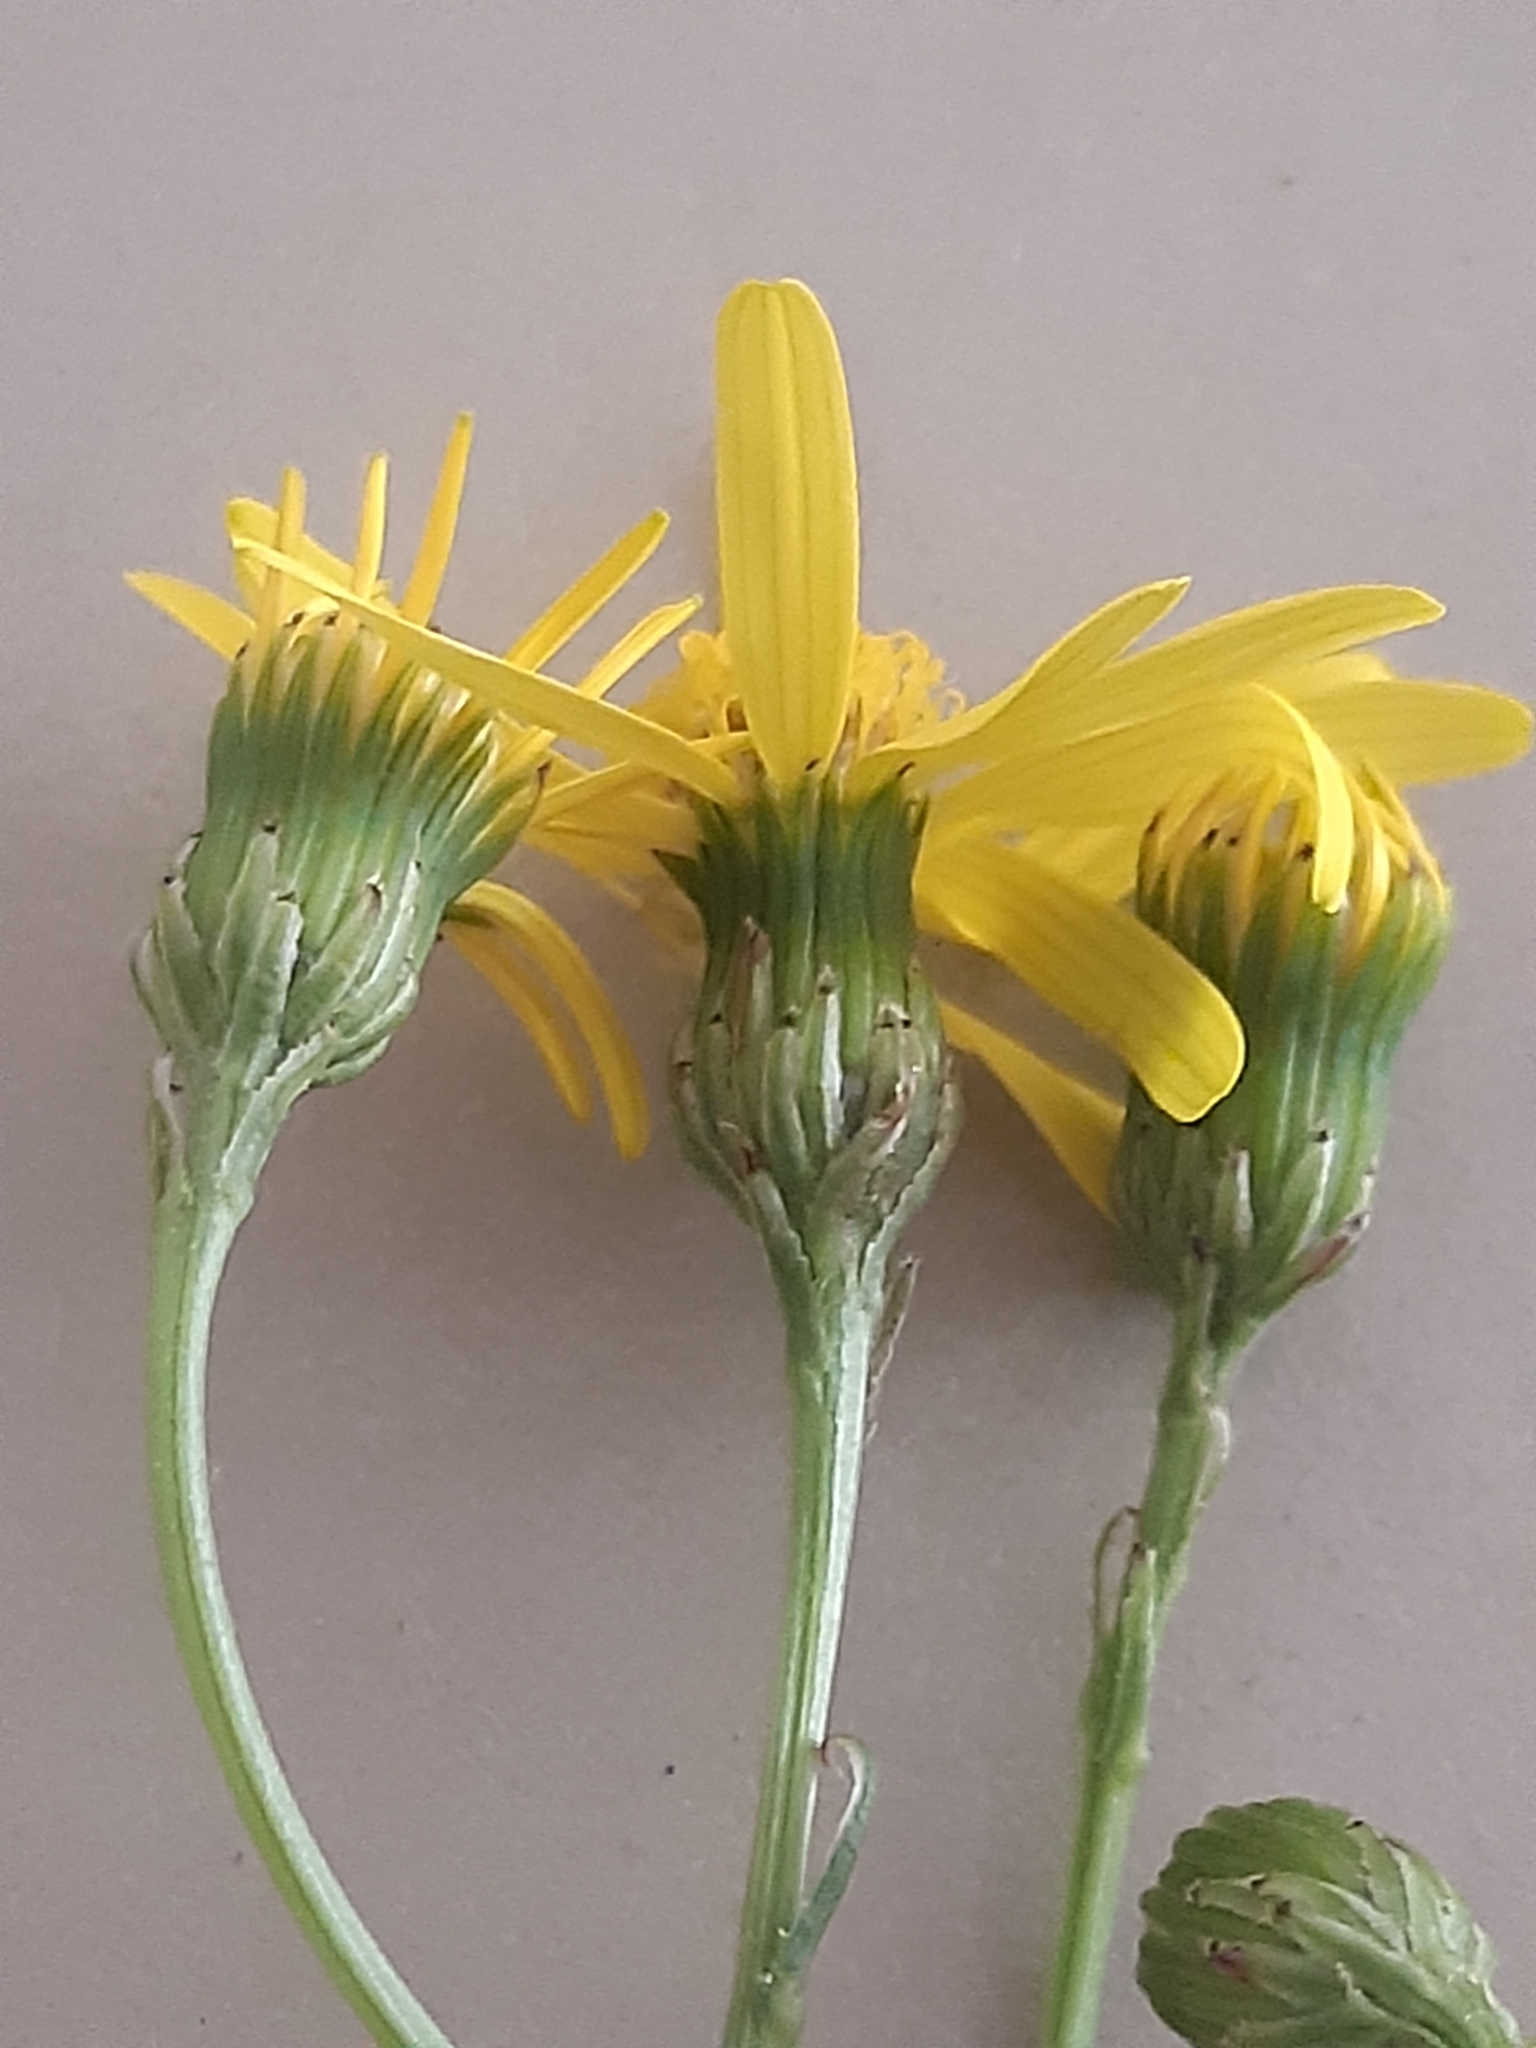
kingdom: Plantae
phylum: Tracheophyta
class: Magnoliopsida
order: Asterales
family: Asteraceae
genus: Senecio
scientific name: Senecio inaequidens
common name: Narrow-leaved ragwort
